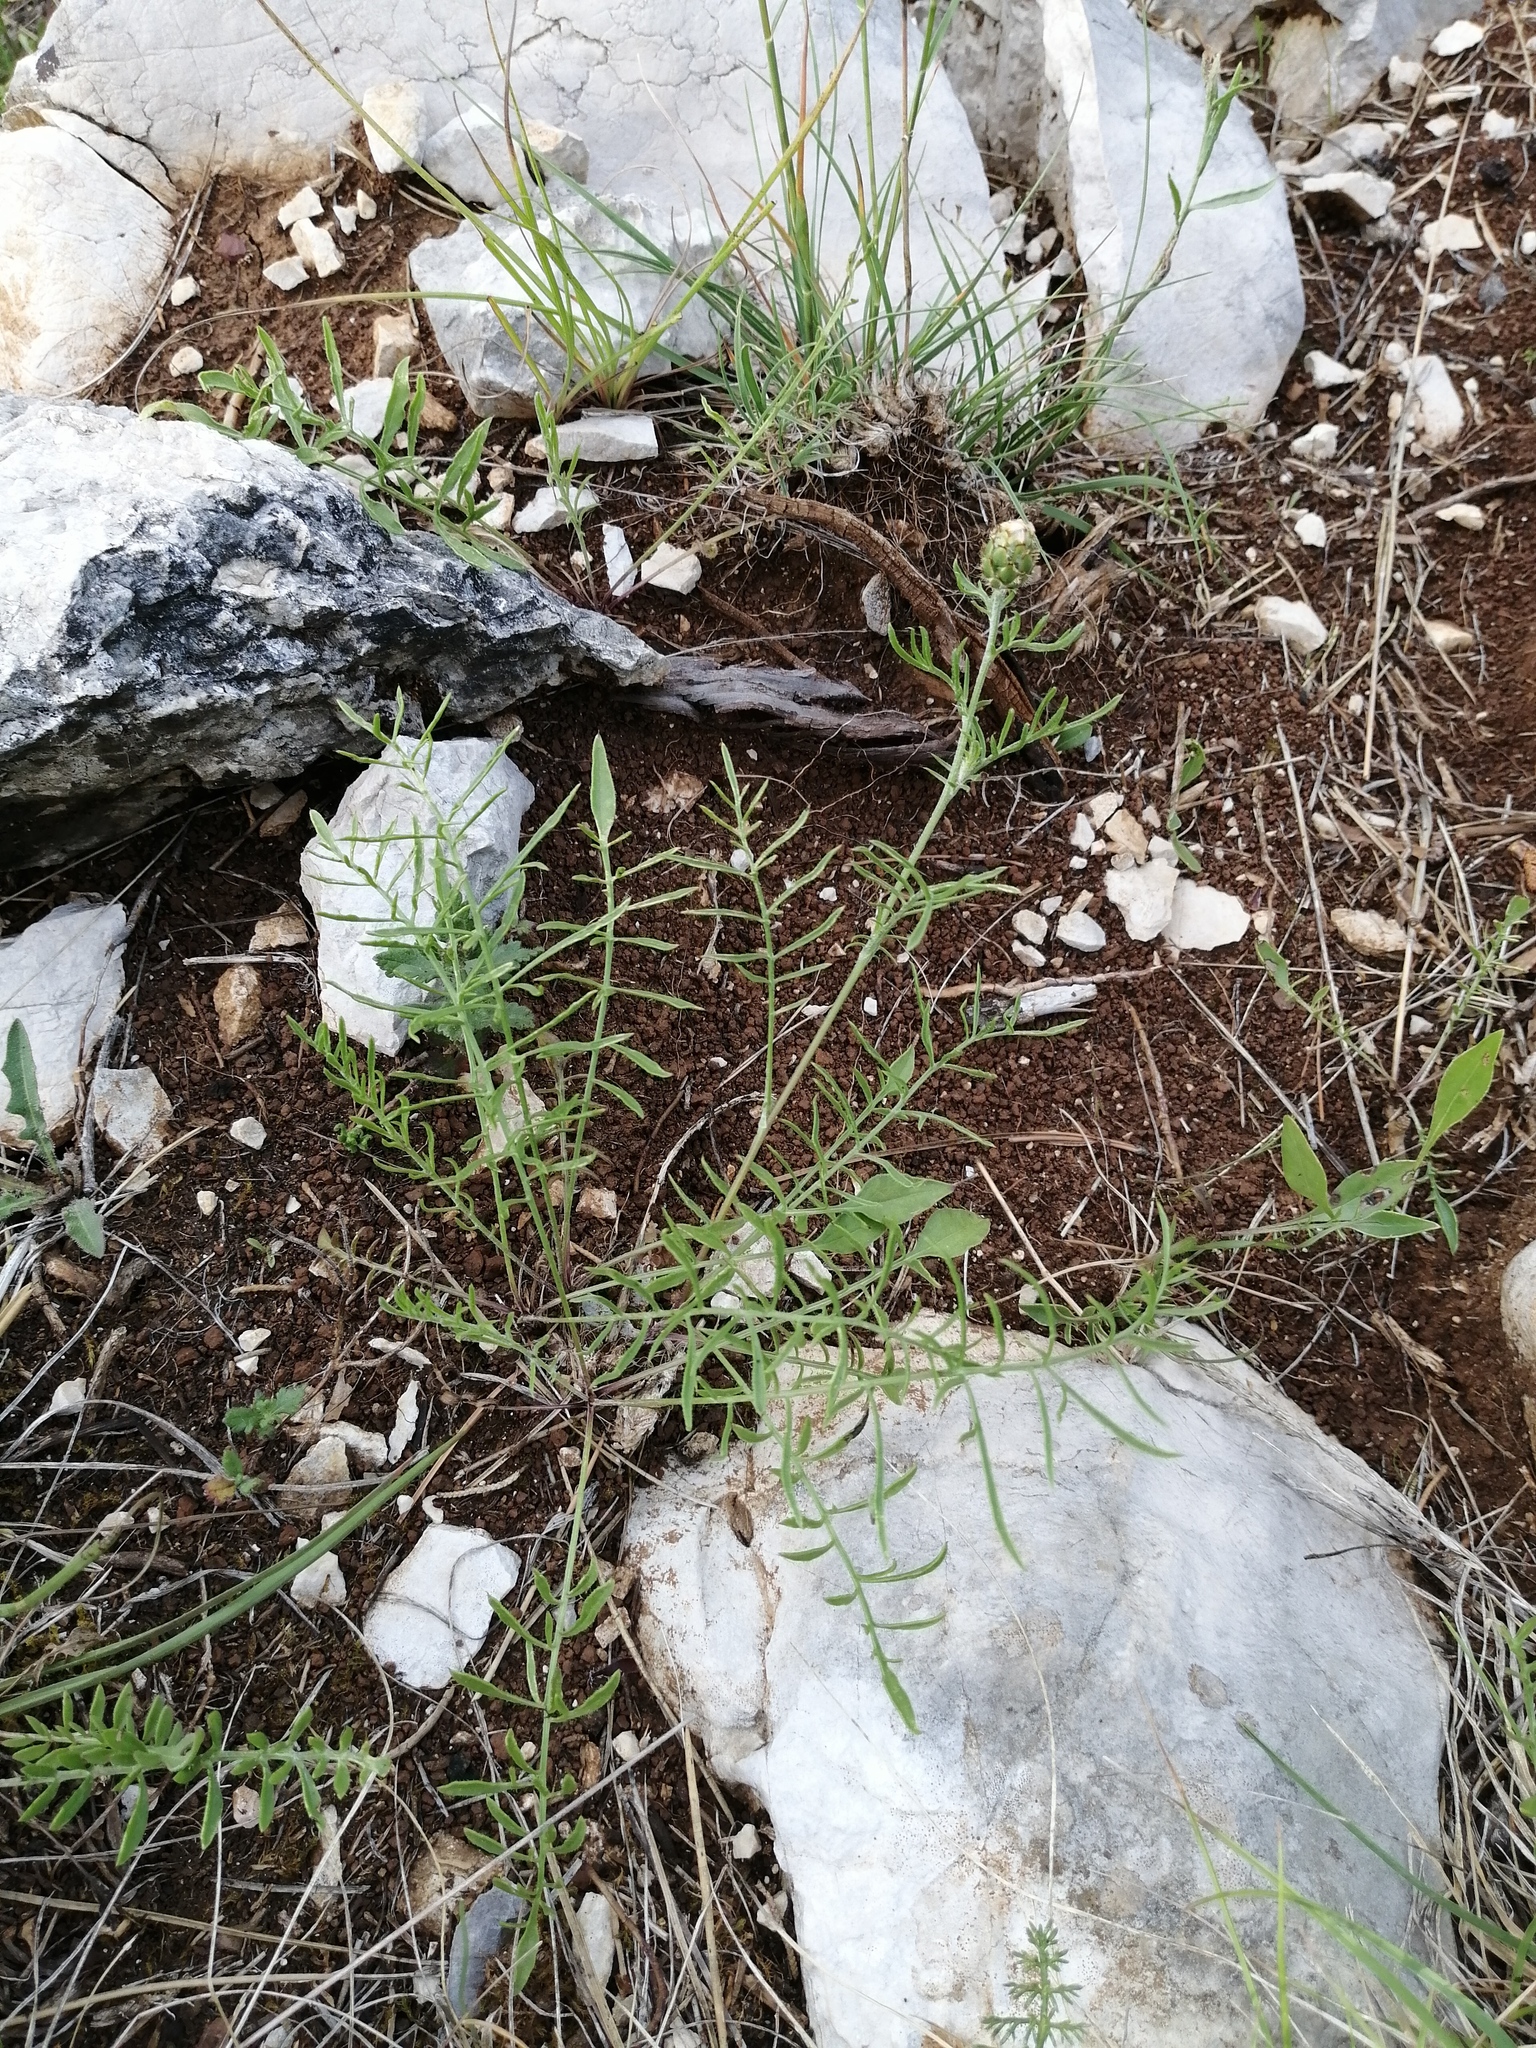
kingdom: Plantae
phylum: Tracheophyta
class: Magnoliopsida
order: Asterales
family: Asteraceae
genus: Centaurea
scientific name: Centaurea rupestris
